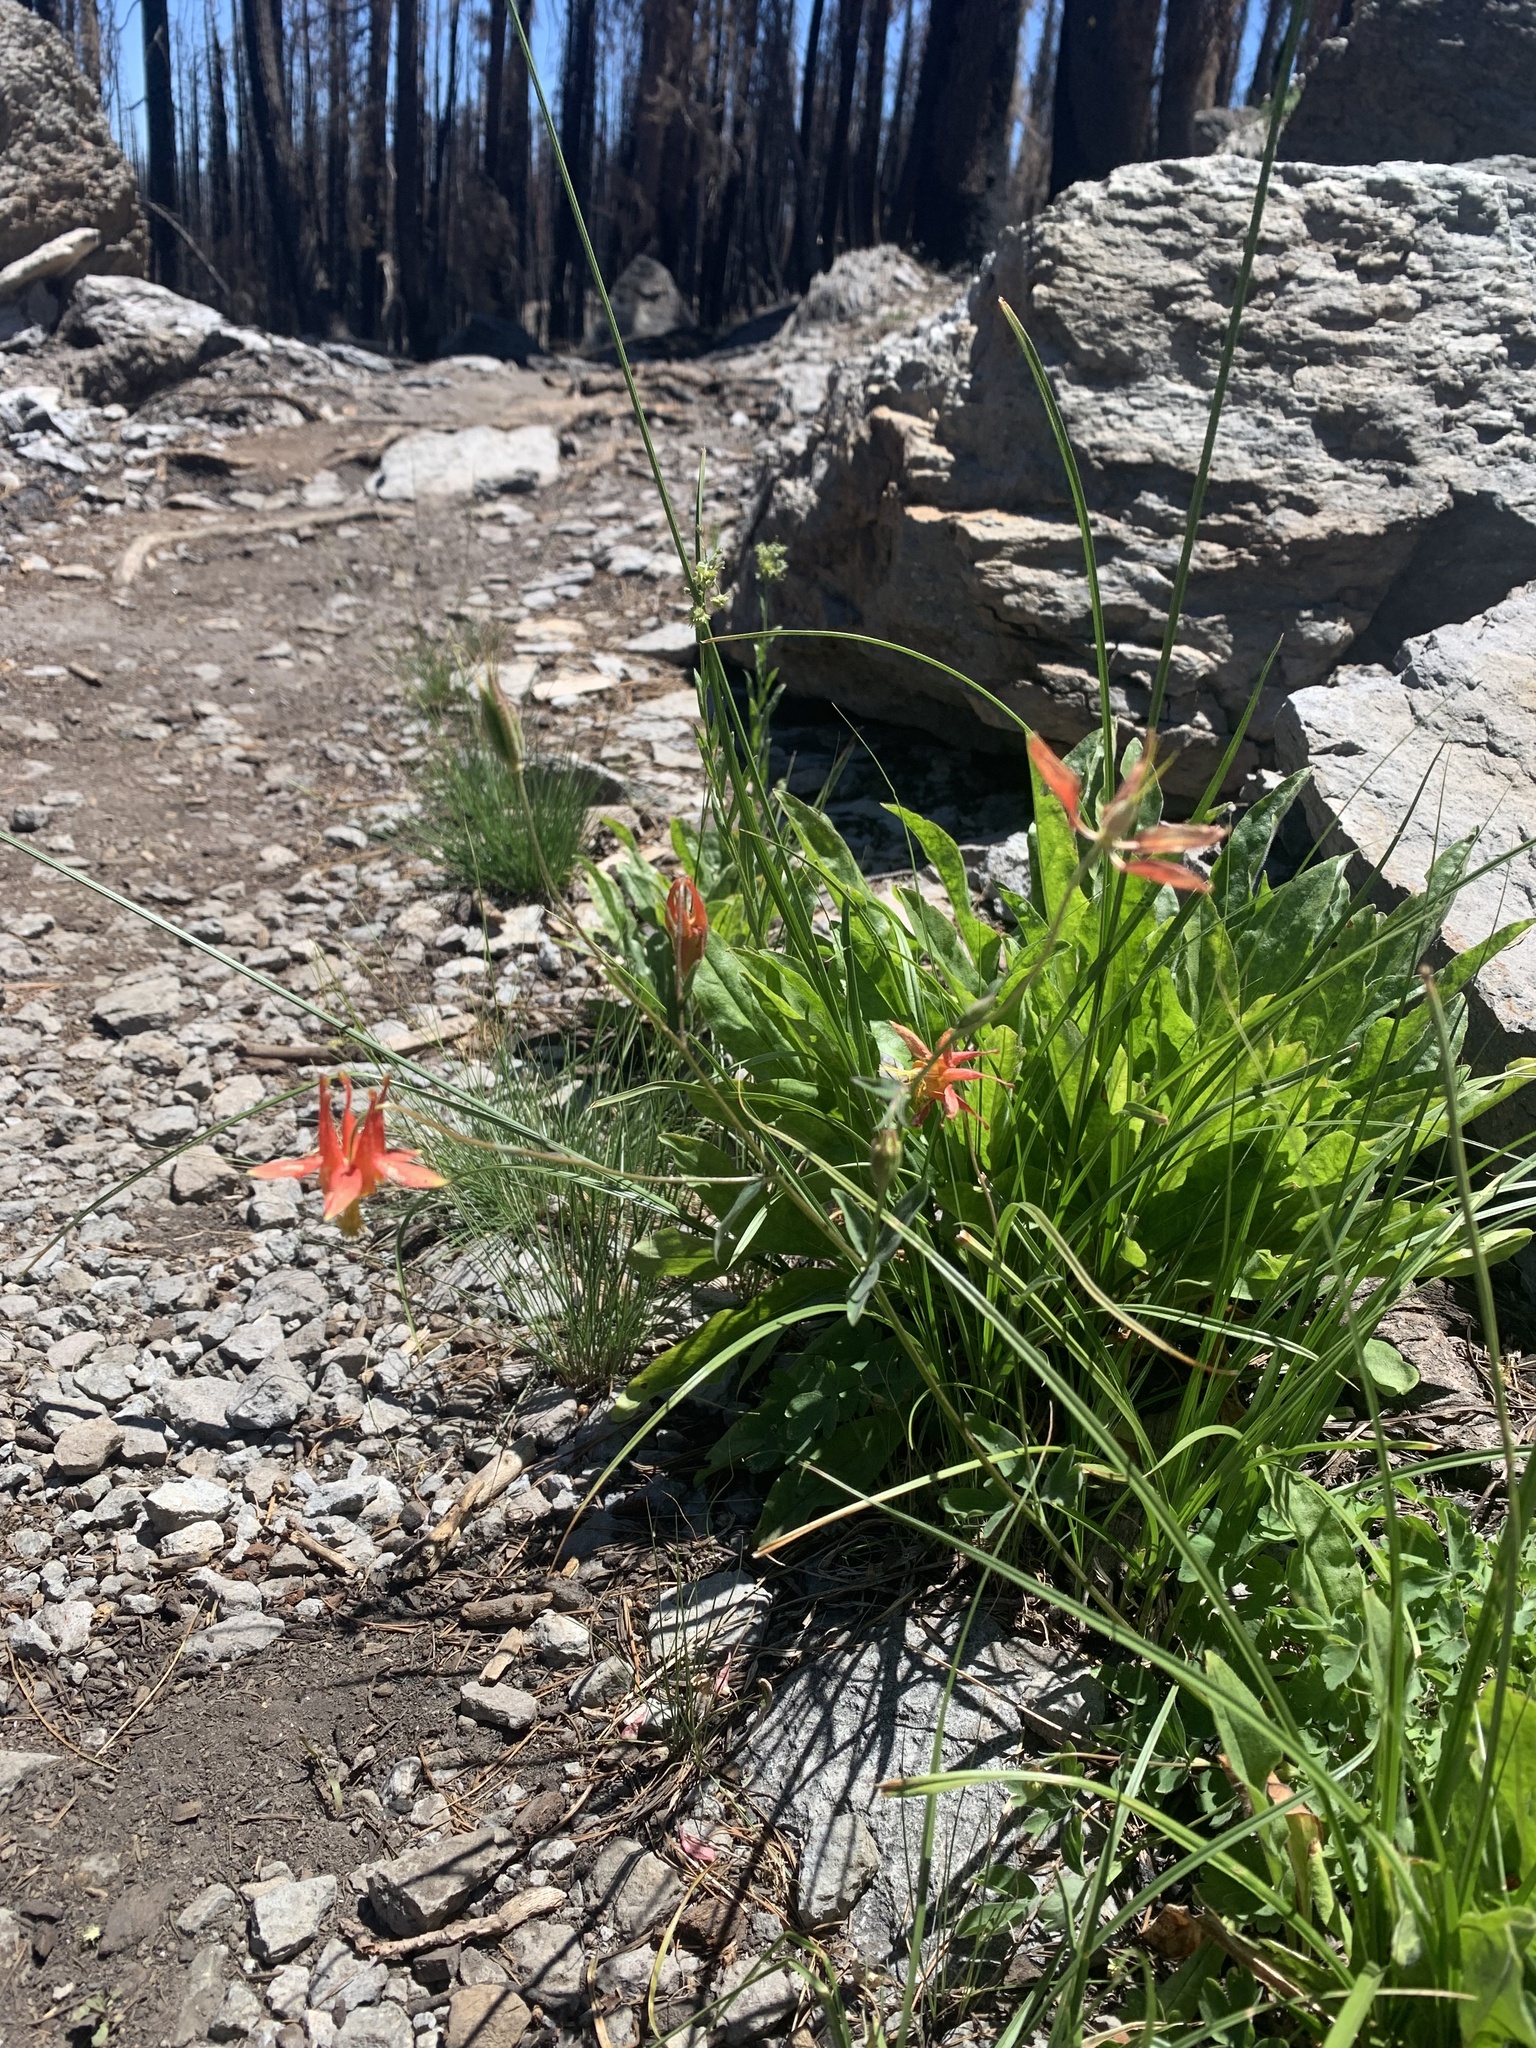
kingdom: Plantae
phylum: Tracheophyta
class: Magnoliopsida
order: Ranunculales
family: Ranunculaceae
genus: Aquilegia
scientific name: Aquilegia formosa
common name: Sitka columbine
